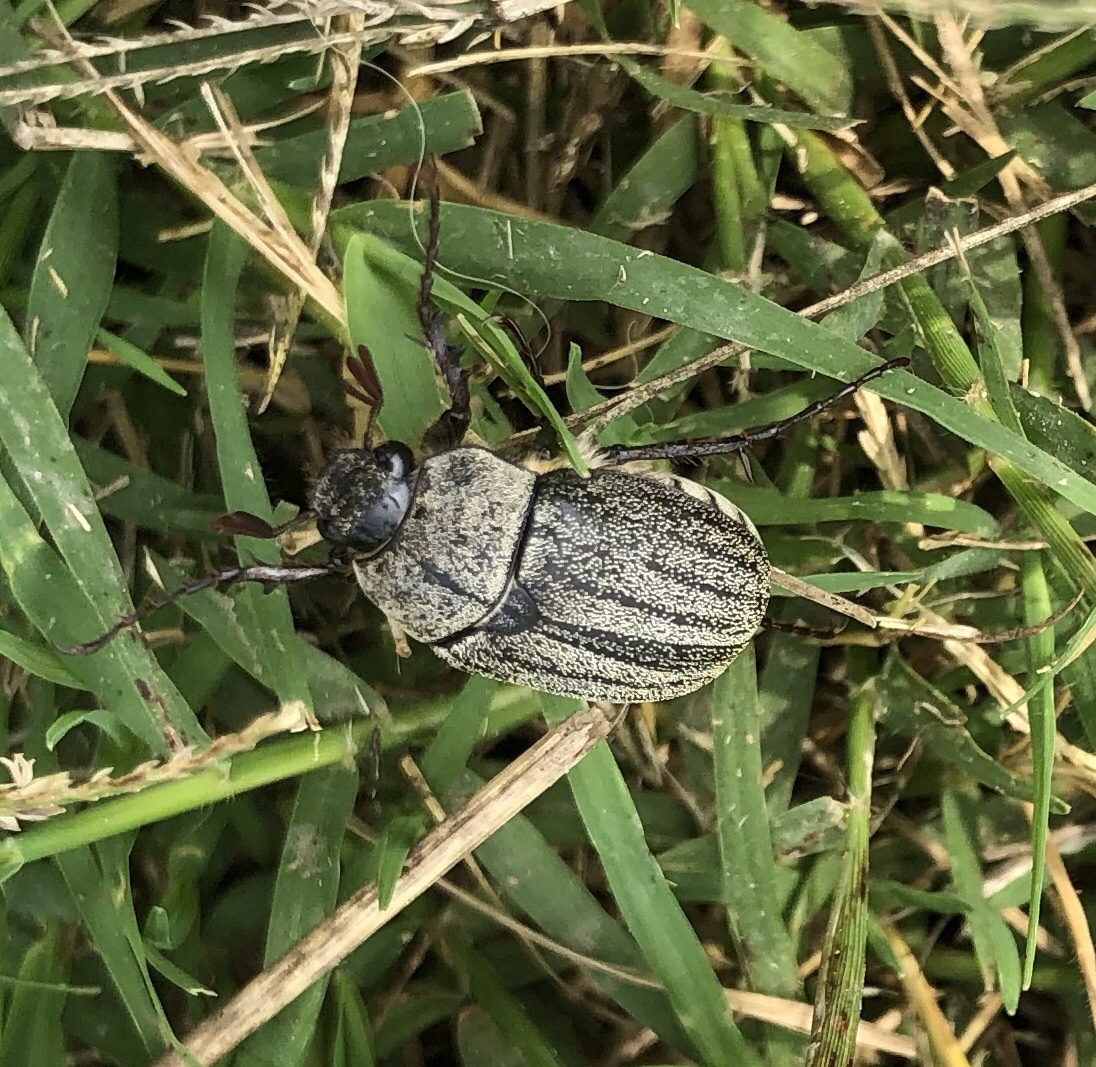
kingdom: Animalia
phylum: Arthropoda
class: Insecta
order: Coleoptera
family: Scarabaeidae
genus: Phyllophaga
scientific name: Phyllophaga lanceolata
